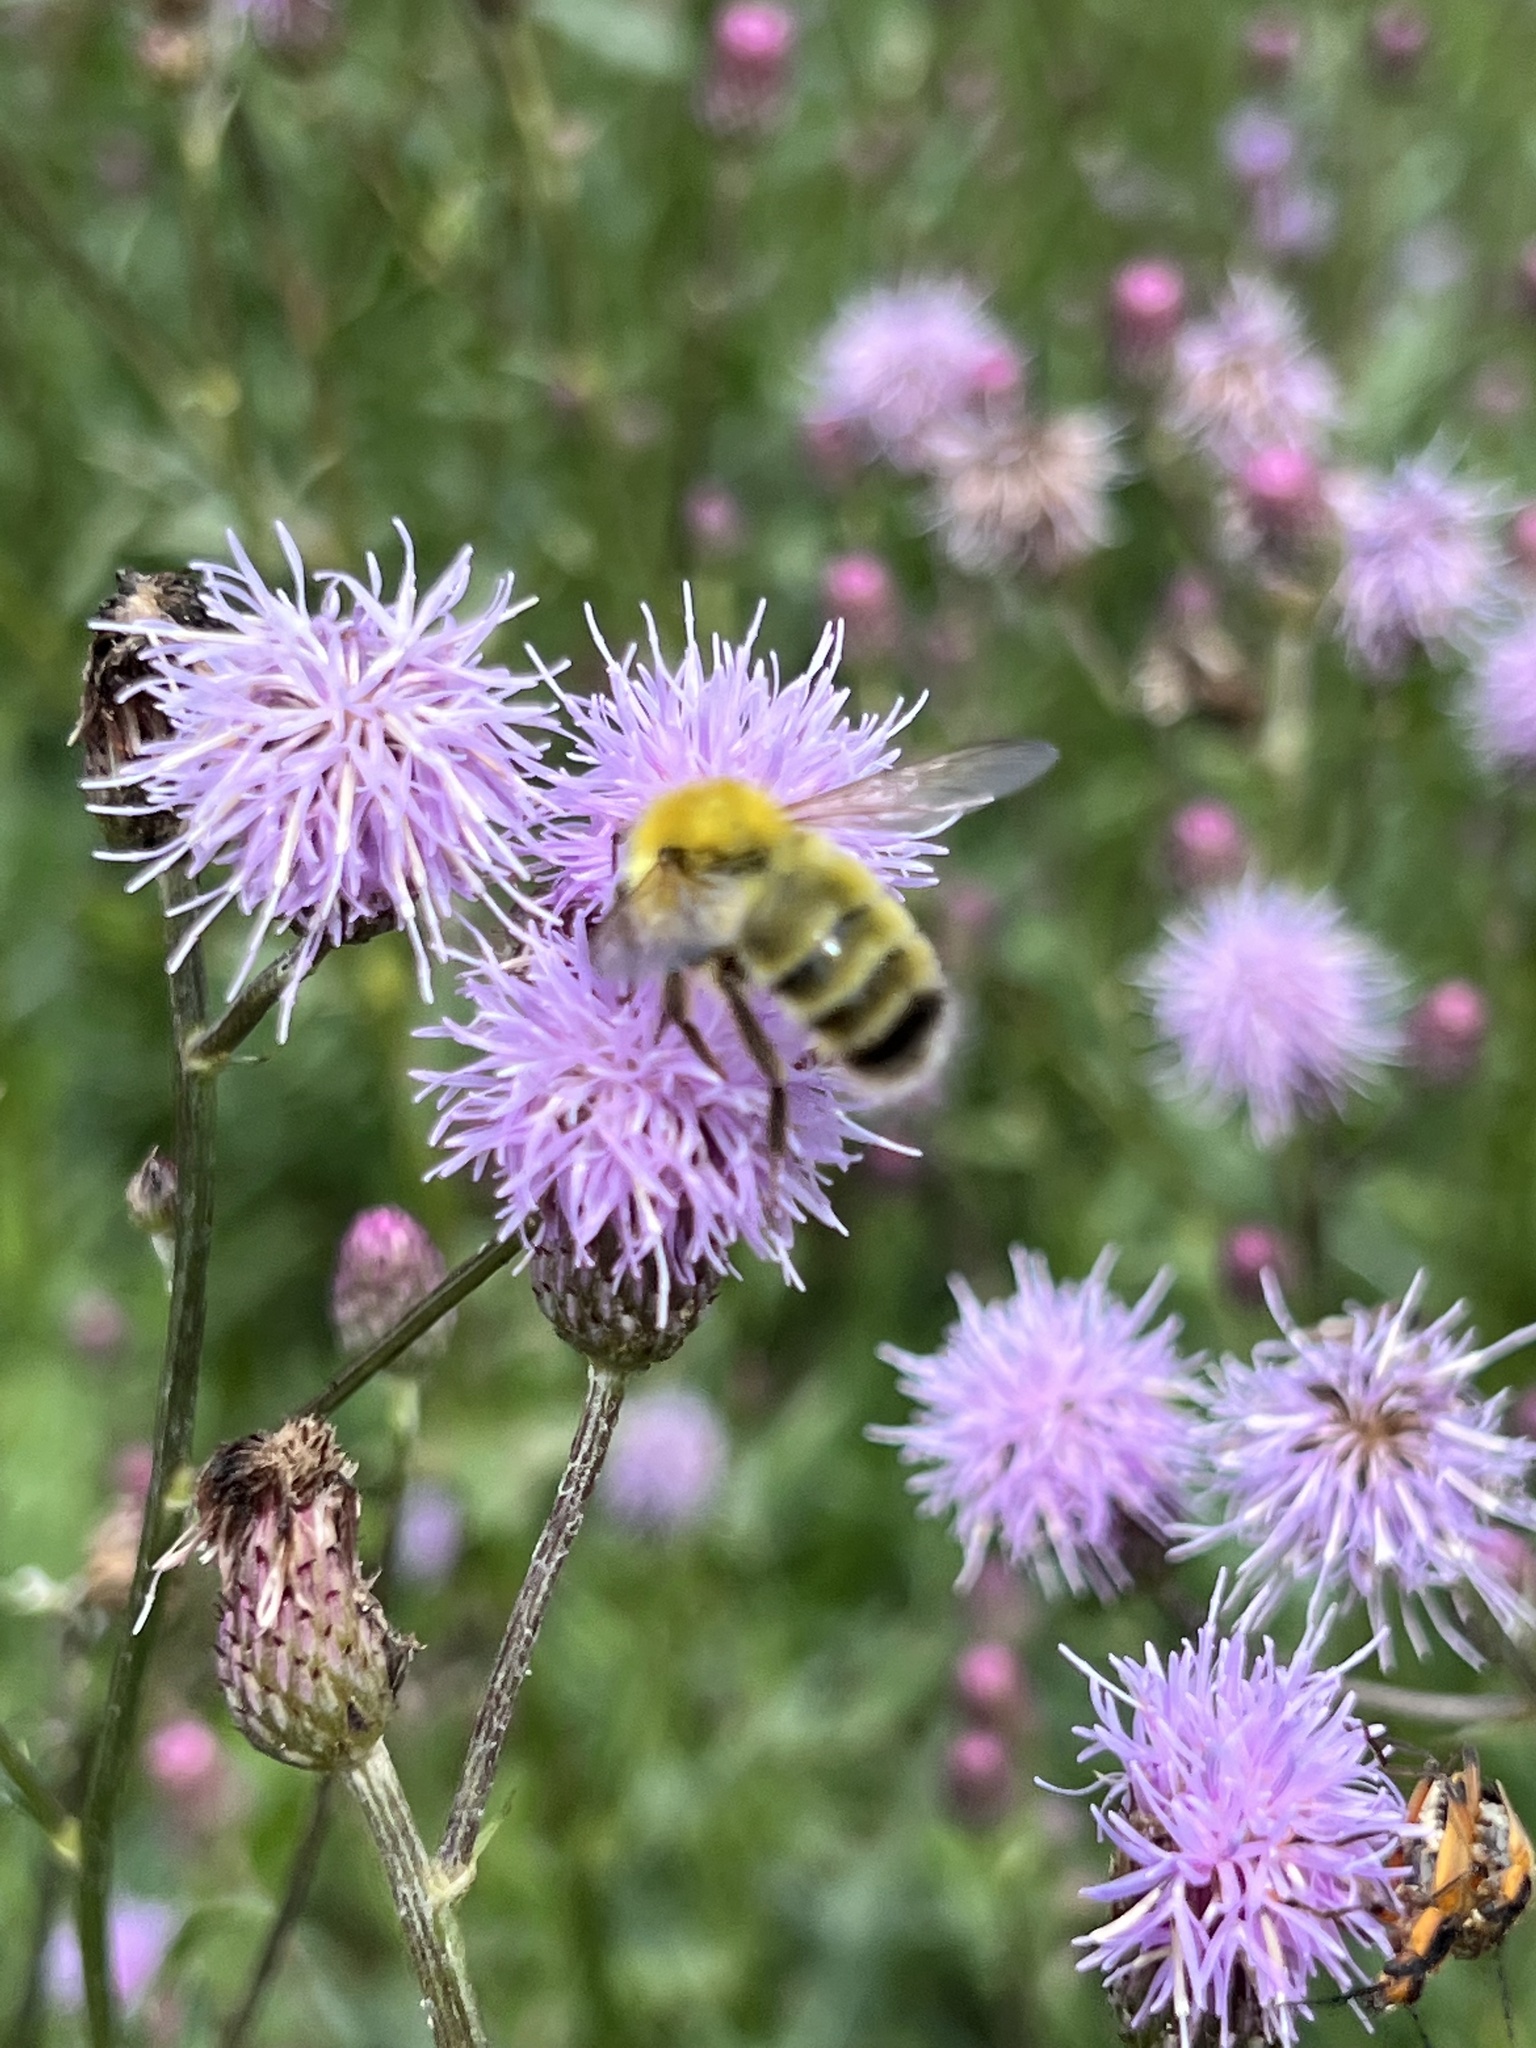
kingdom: Animalia
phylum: Arthropoda
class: Insecta
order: Hymenoptera
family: Apidae
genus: Bombus
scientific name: Bombus perplexus
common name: Confusing bumble bee
